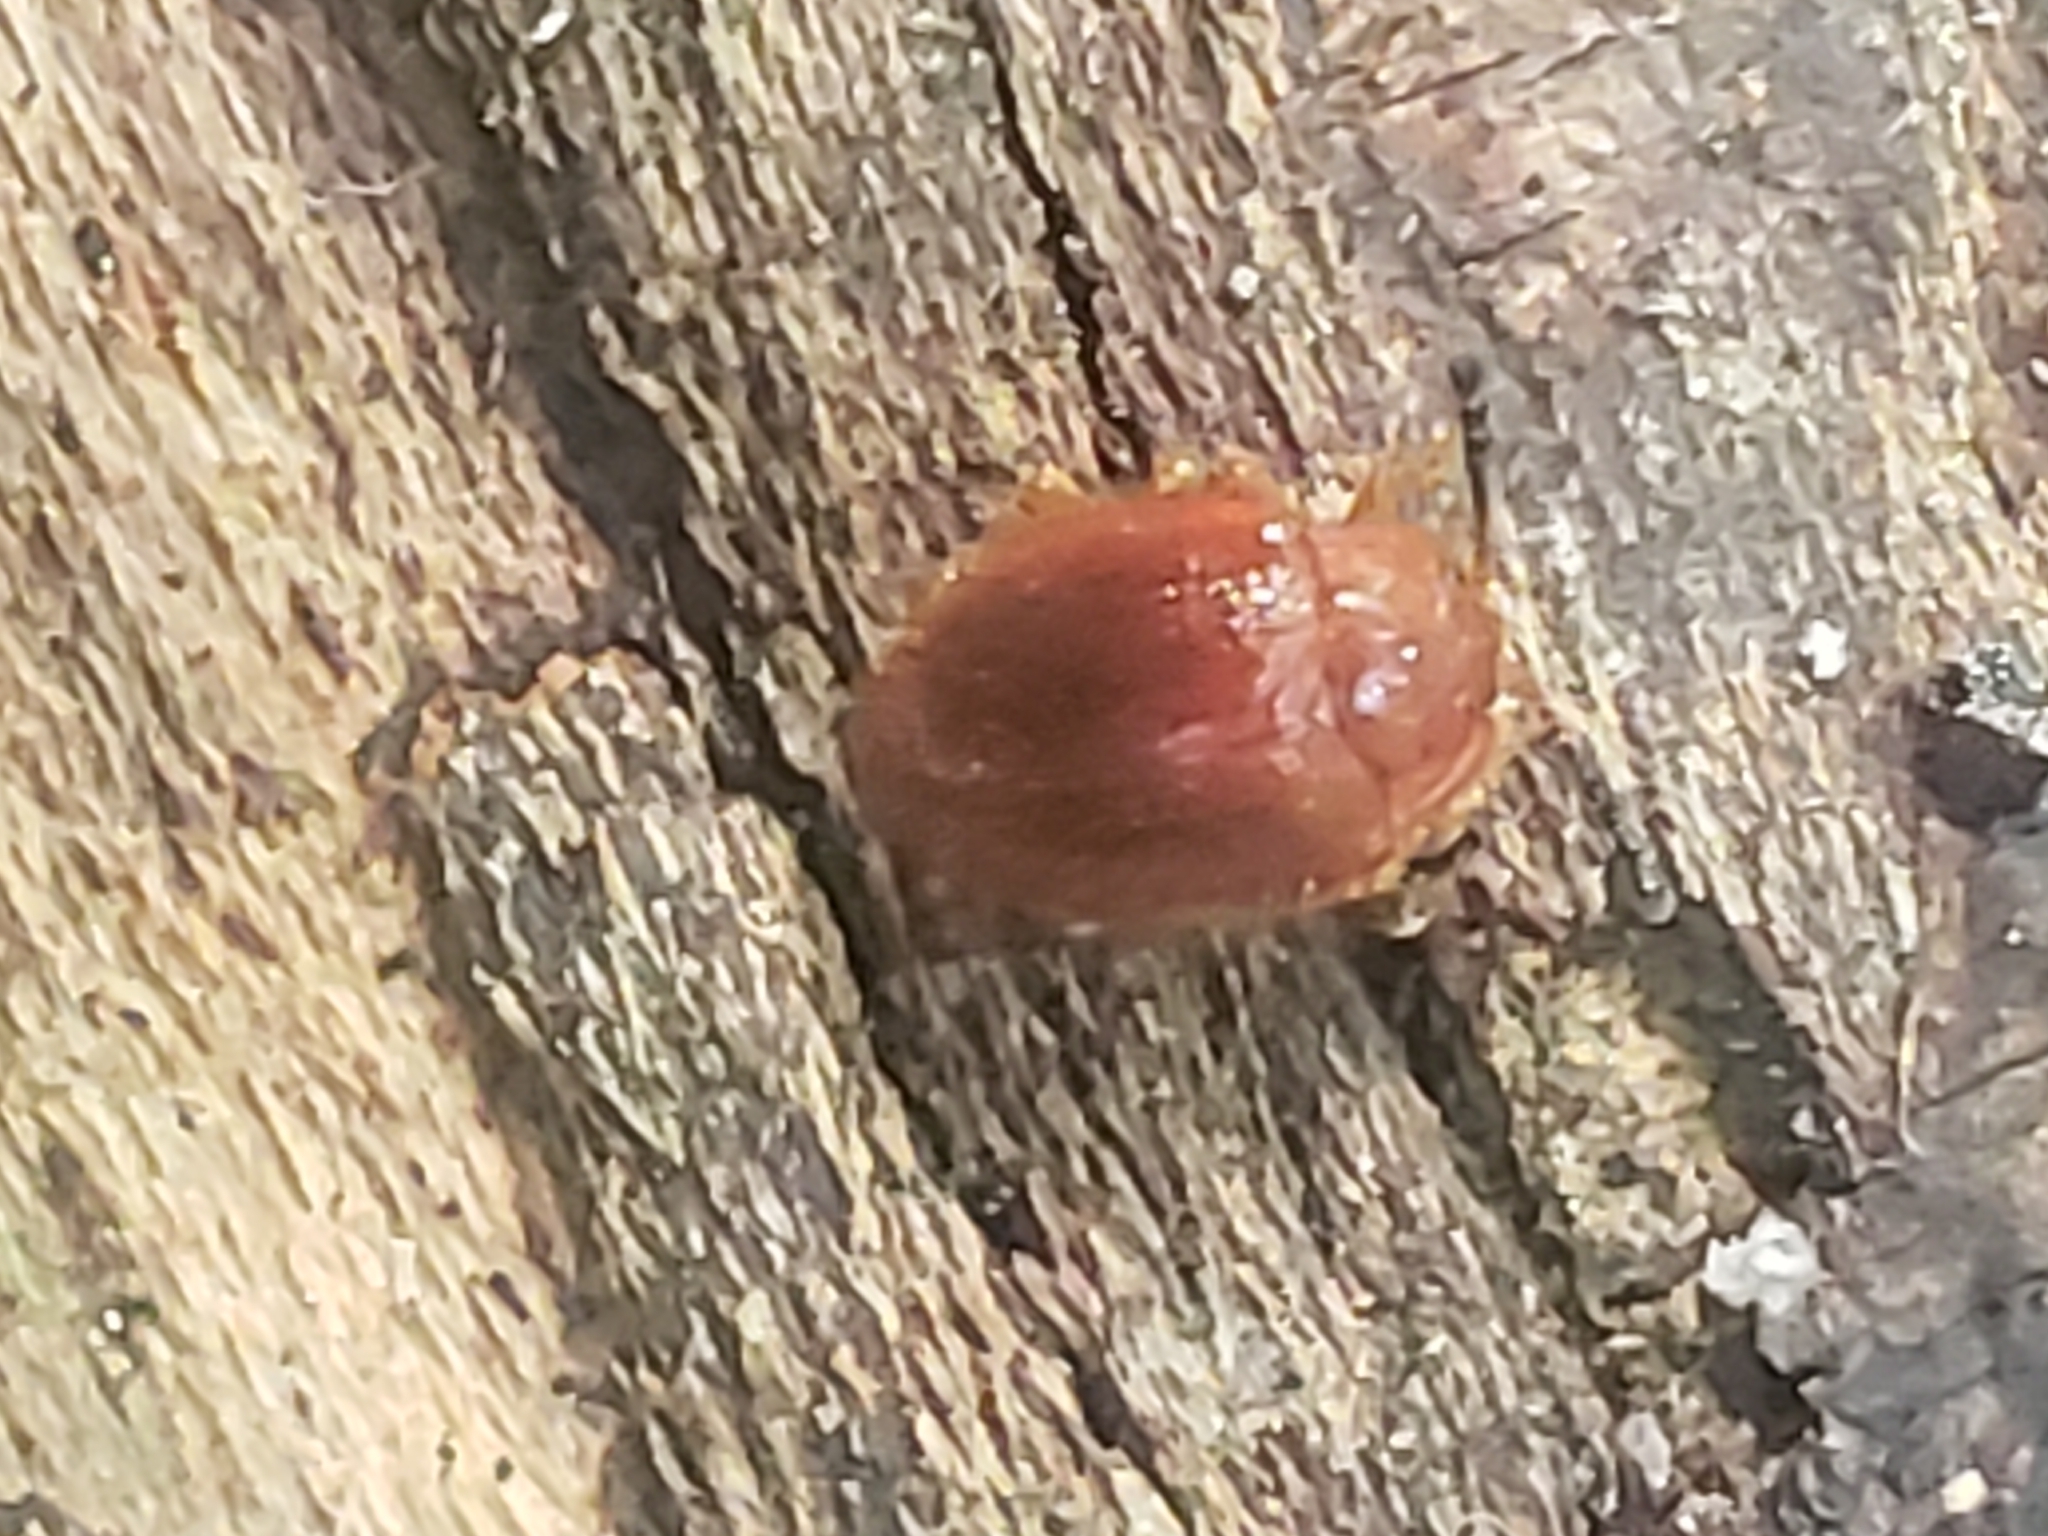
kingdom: Animalia
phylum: Arthropoda
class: Insecta
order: Coleoptera
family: Endomychidae
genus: Stenotarsus
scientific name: Stenotarsus blatchleyi
